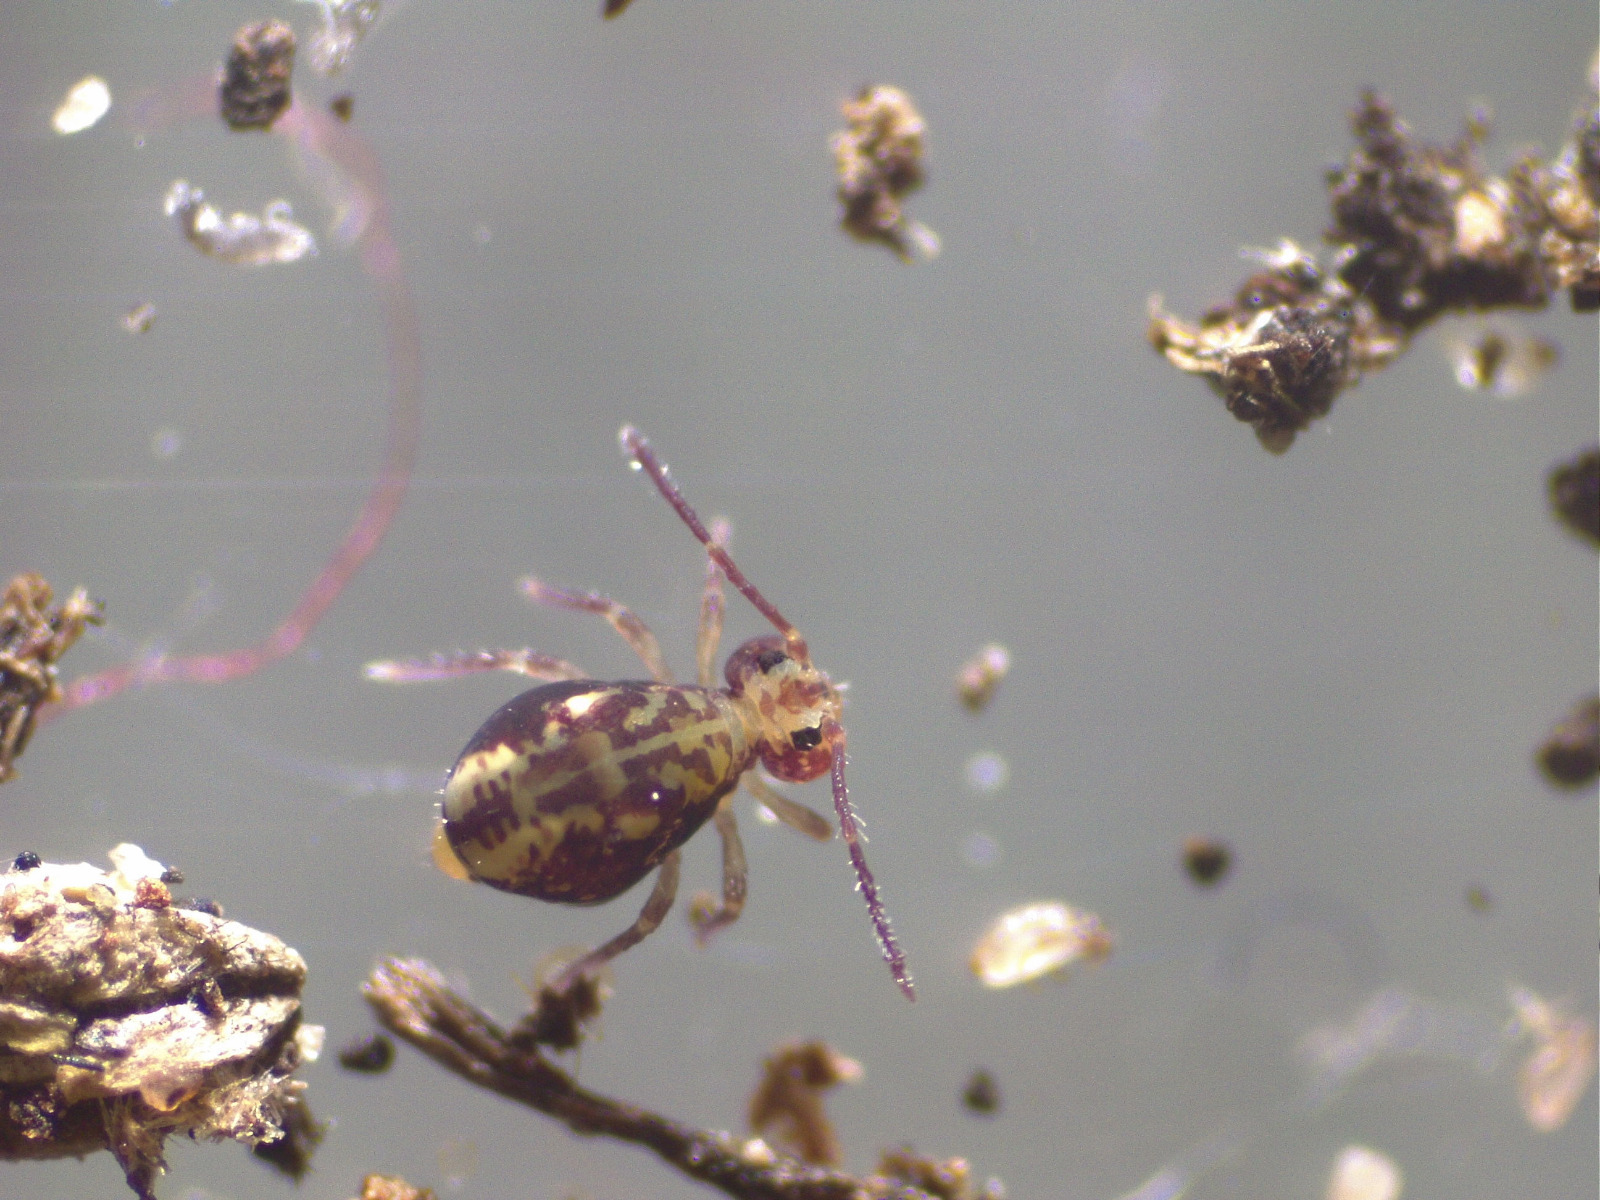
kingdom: Animalia
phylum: Arthropoda
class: Collembola
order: Symphypleona
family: Dicyrtomidae
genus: Dicyrtomina
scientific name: Dicyrtomina saundersi
